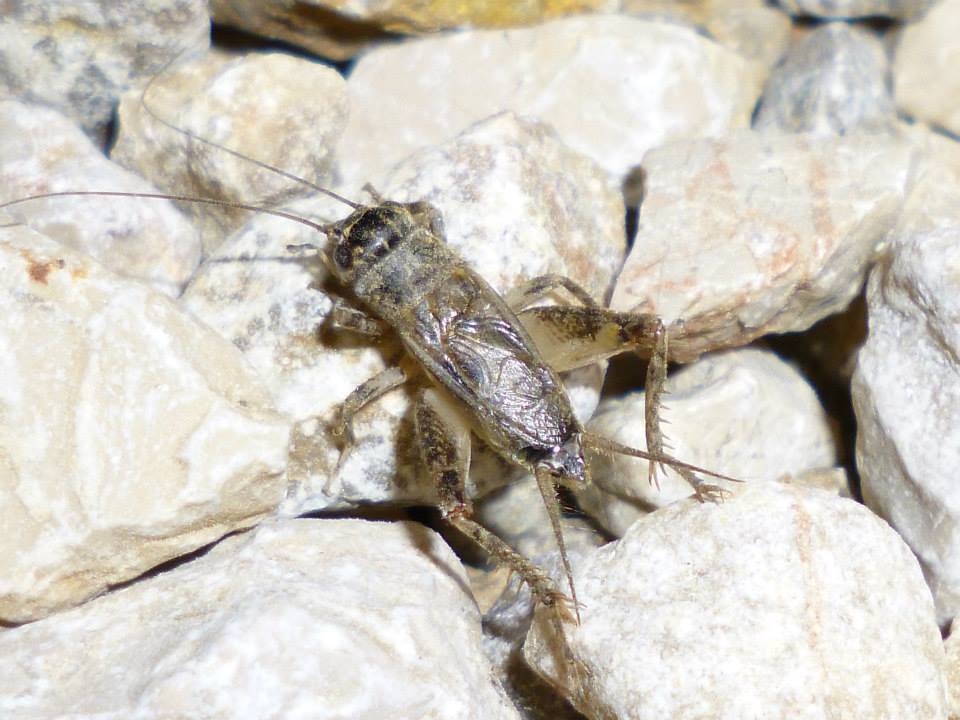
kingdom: Animalia
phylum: Arthropoda
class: Insecta
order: Orthoptera
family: Gryllidae
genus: Eumodicogryllus
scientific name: Eumodicogryllus bordigalensis
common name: Bordeaux cricket
